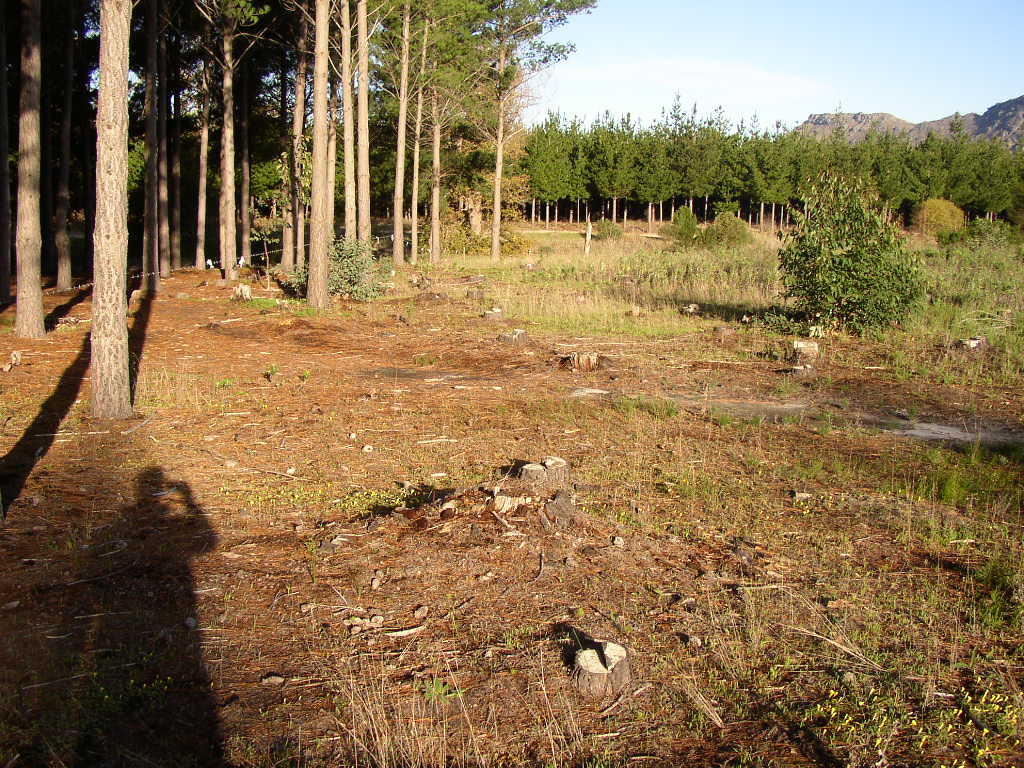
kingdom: Plantae
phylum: Tracheophyta
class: Magnoliopsida
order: Oxalidales
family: Oxalidaceae
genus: Oxalis
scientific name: Oxalis luteola
